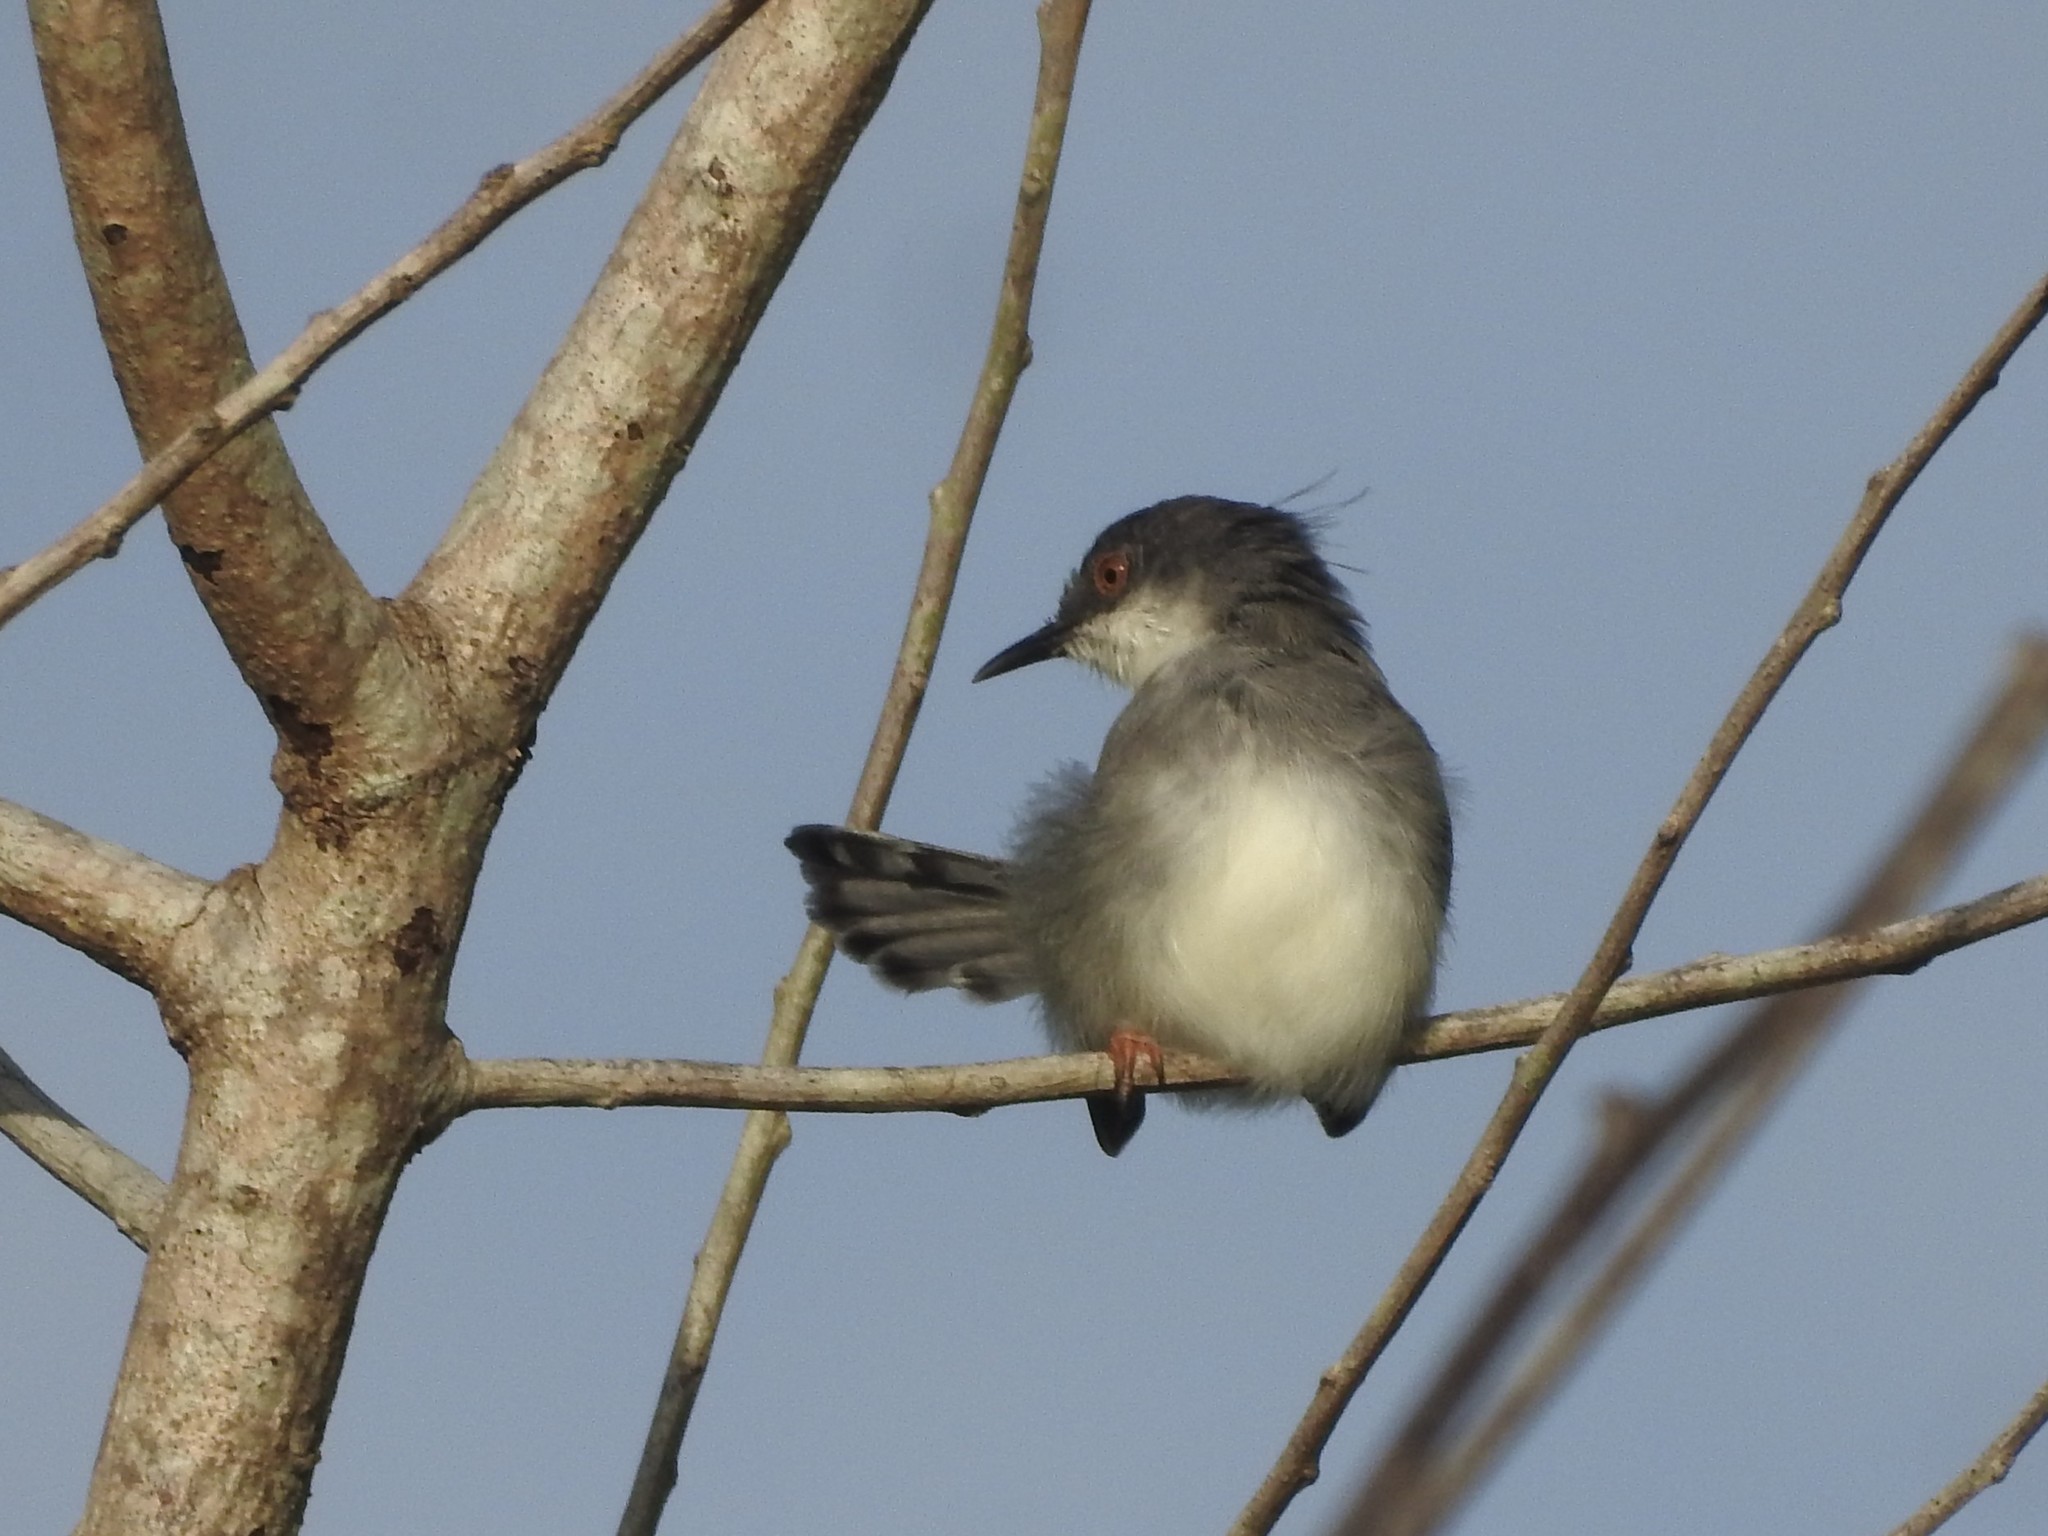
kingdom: Animalia
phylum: Chordata
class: Aves
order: Passeriformes
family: Cisticolidae
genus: Prinia
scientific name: Prinia hodgsonii
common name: Grey-breasted prinia
